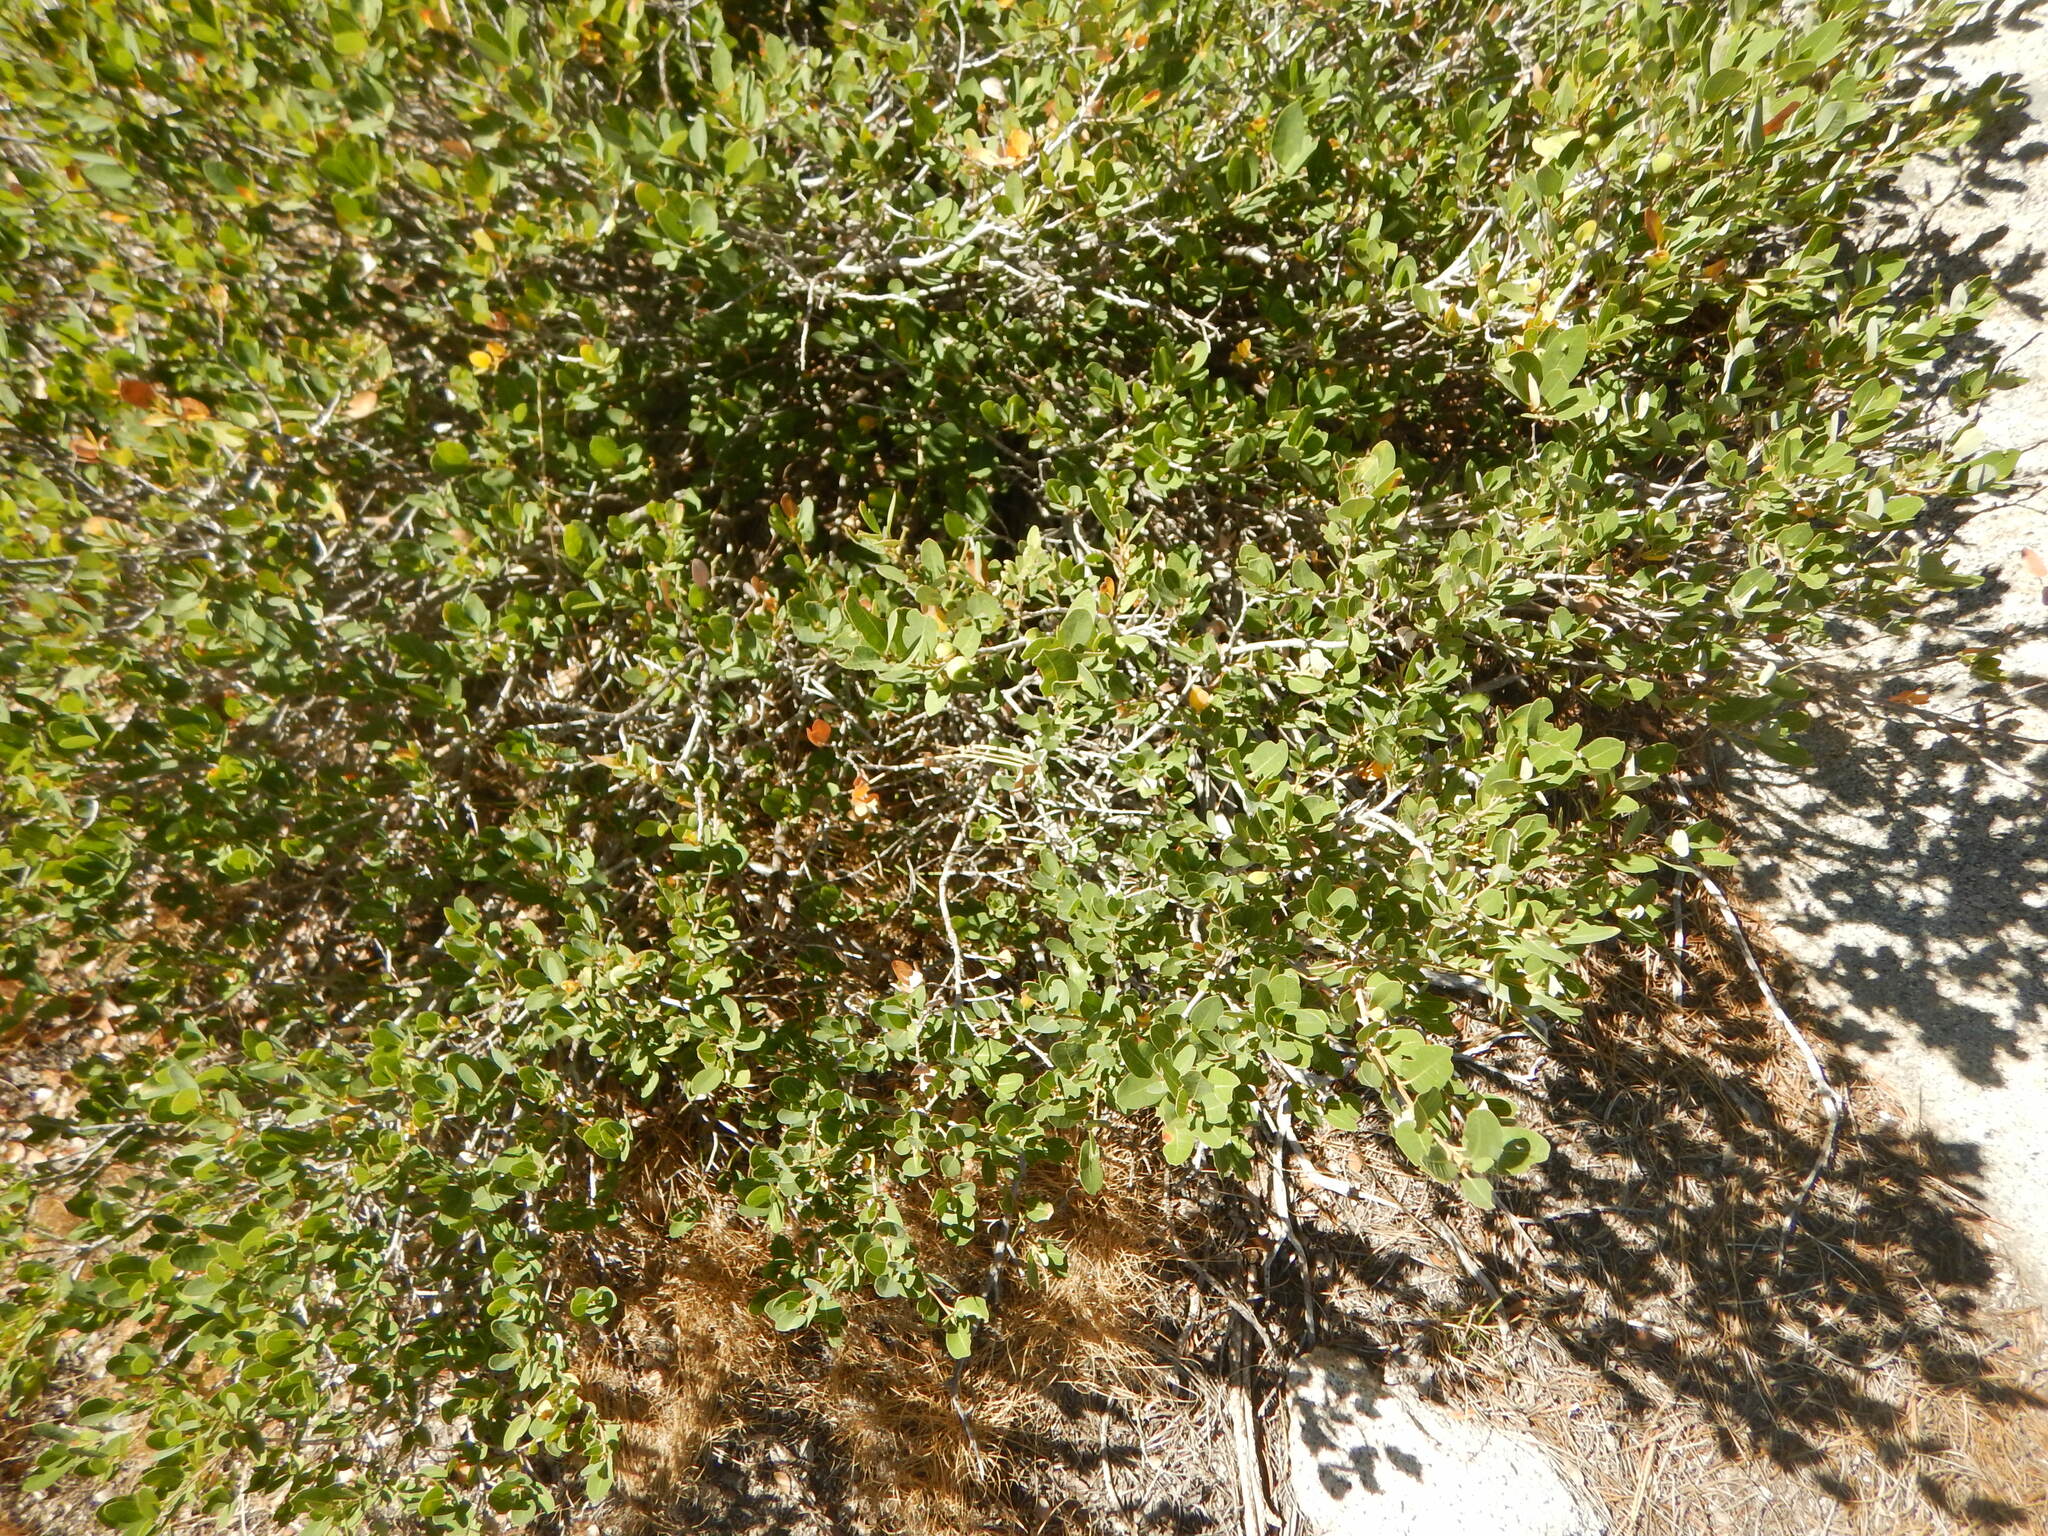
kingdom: Plantae
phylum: Tracheophyta
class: Magnoliopsida
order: Fagales
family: Fagaceae
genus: Quercus
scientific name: Quercus vacciniifolia
